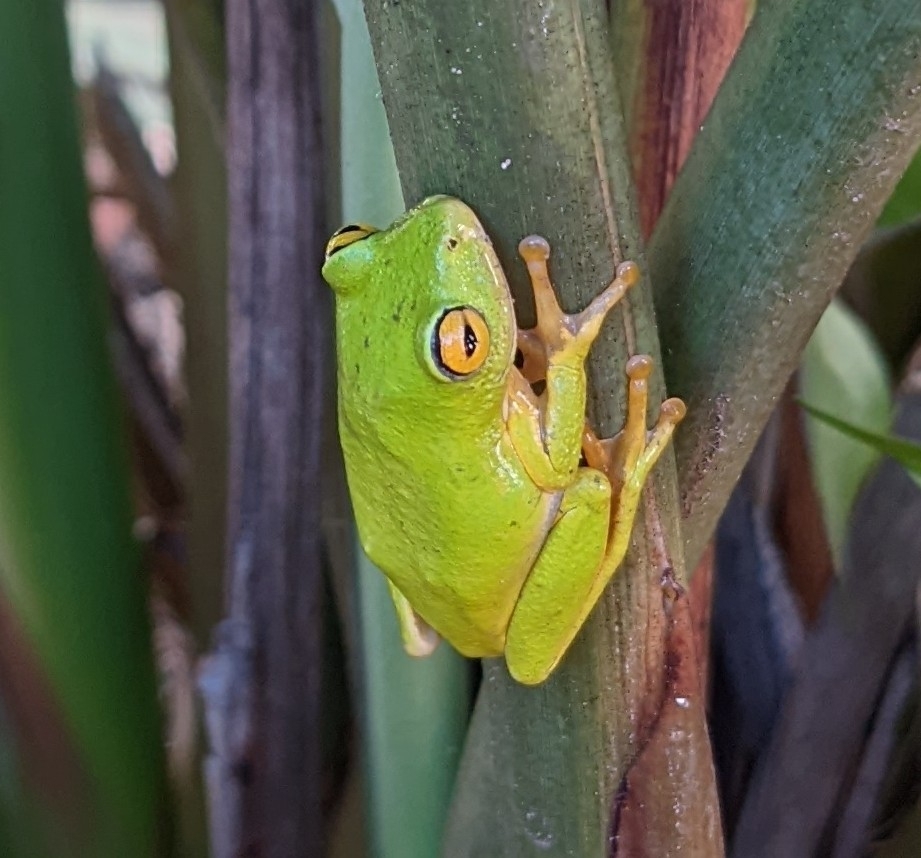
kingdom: Animalia
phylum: Chordata
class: Amphibia
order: Anura
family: Hyperoliidae
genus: Hyperolius
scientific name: Hyperolius tuberilinguis
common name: Tinker reed frog
